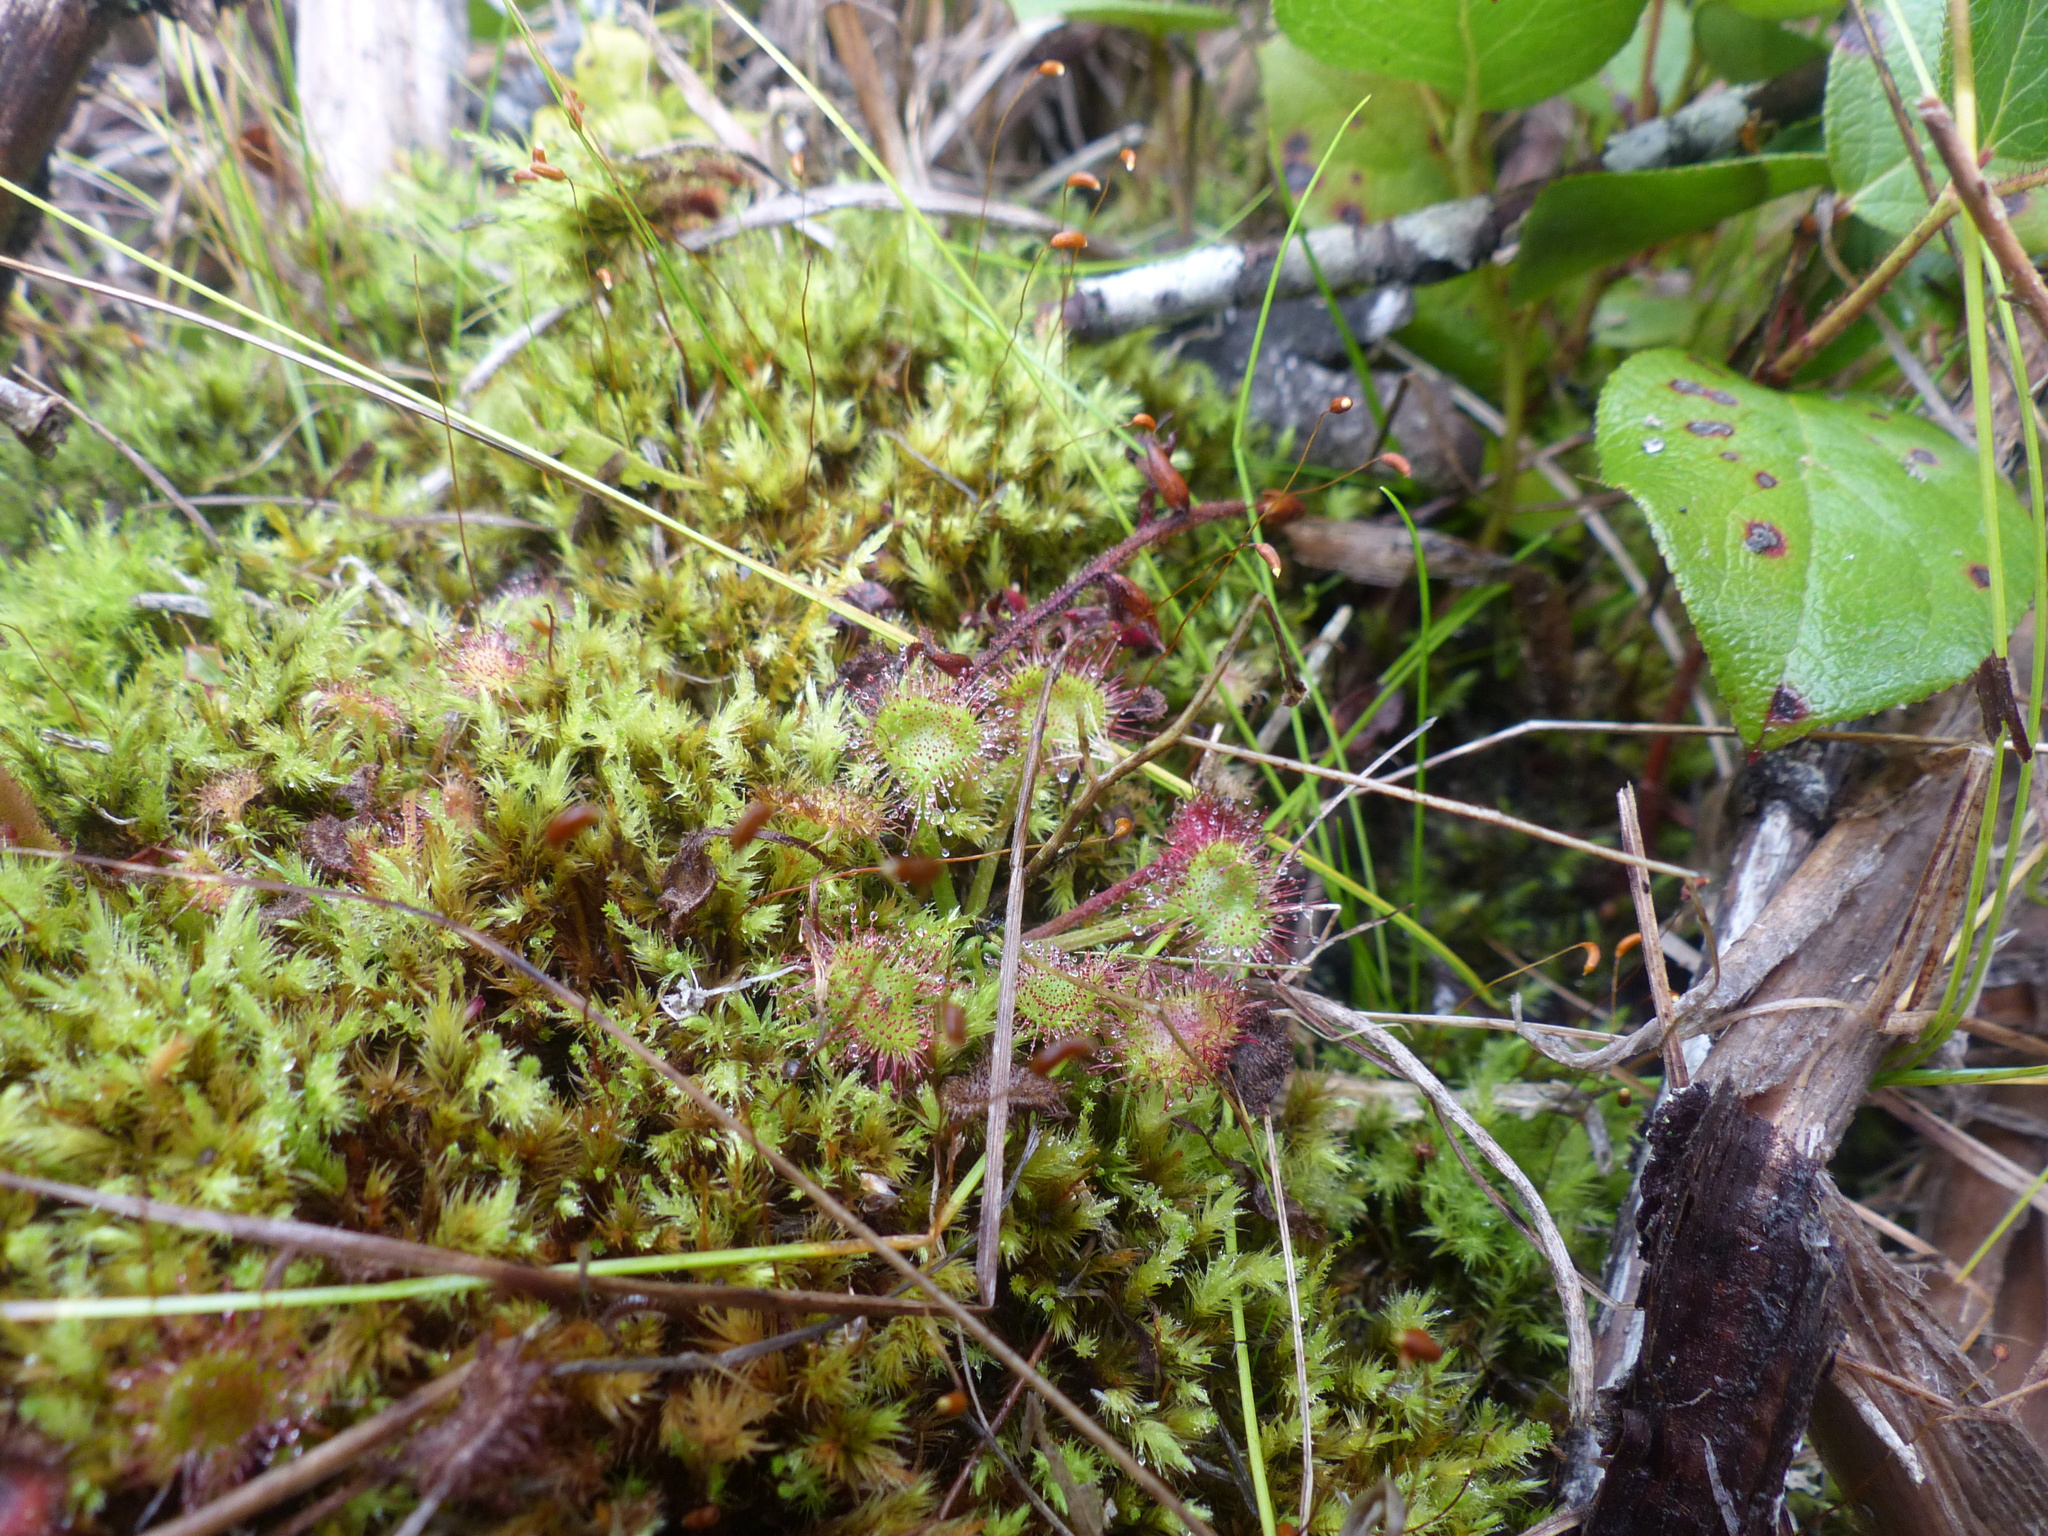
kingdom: Plantae
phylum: Tracheophyta
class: Magnoliopsida
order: Caryophyllales
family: Droseraceae
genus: Drosera
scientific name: Drosera rotundifolia
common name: Round-leaved sundew
